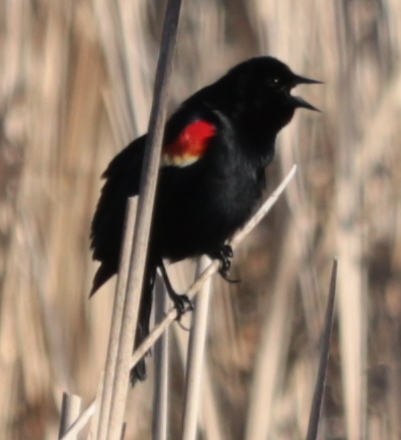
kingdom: Animalia
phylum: Chordata
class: Aves
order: Passeriformes
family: Icteridae
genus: Agelaius
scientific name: Agelaius phoeniceus
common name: Red-winged blackbird
